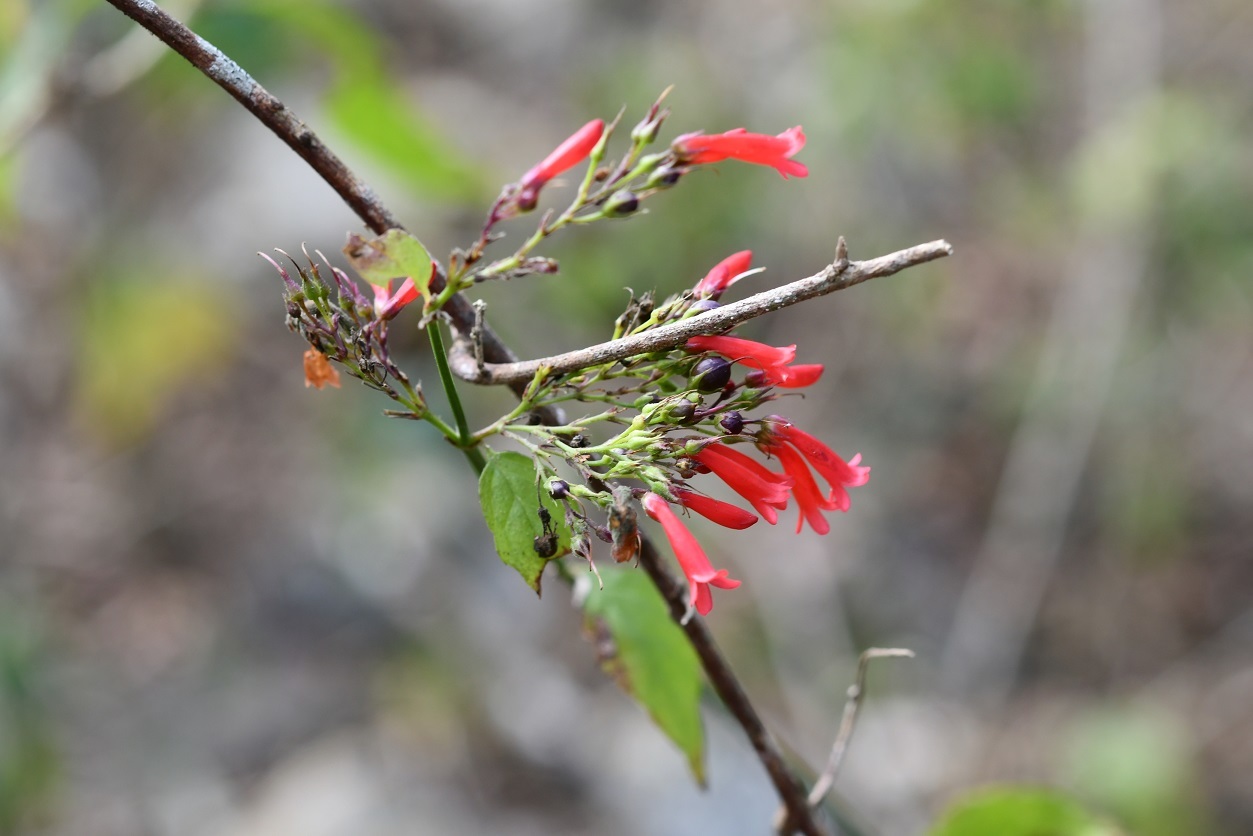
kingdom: Plantae
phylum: Tracheophyta
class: Magnoliopsida
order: Lamiales
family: Plantaginaceae
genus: Russelia
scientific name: Russelia sarmentosa
